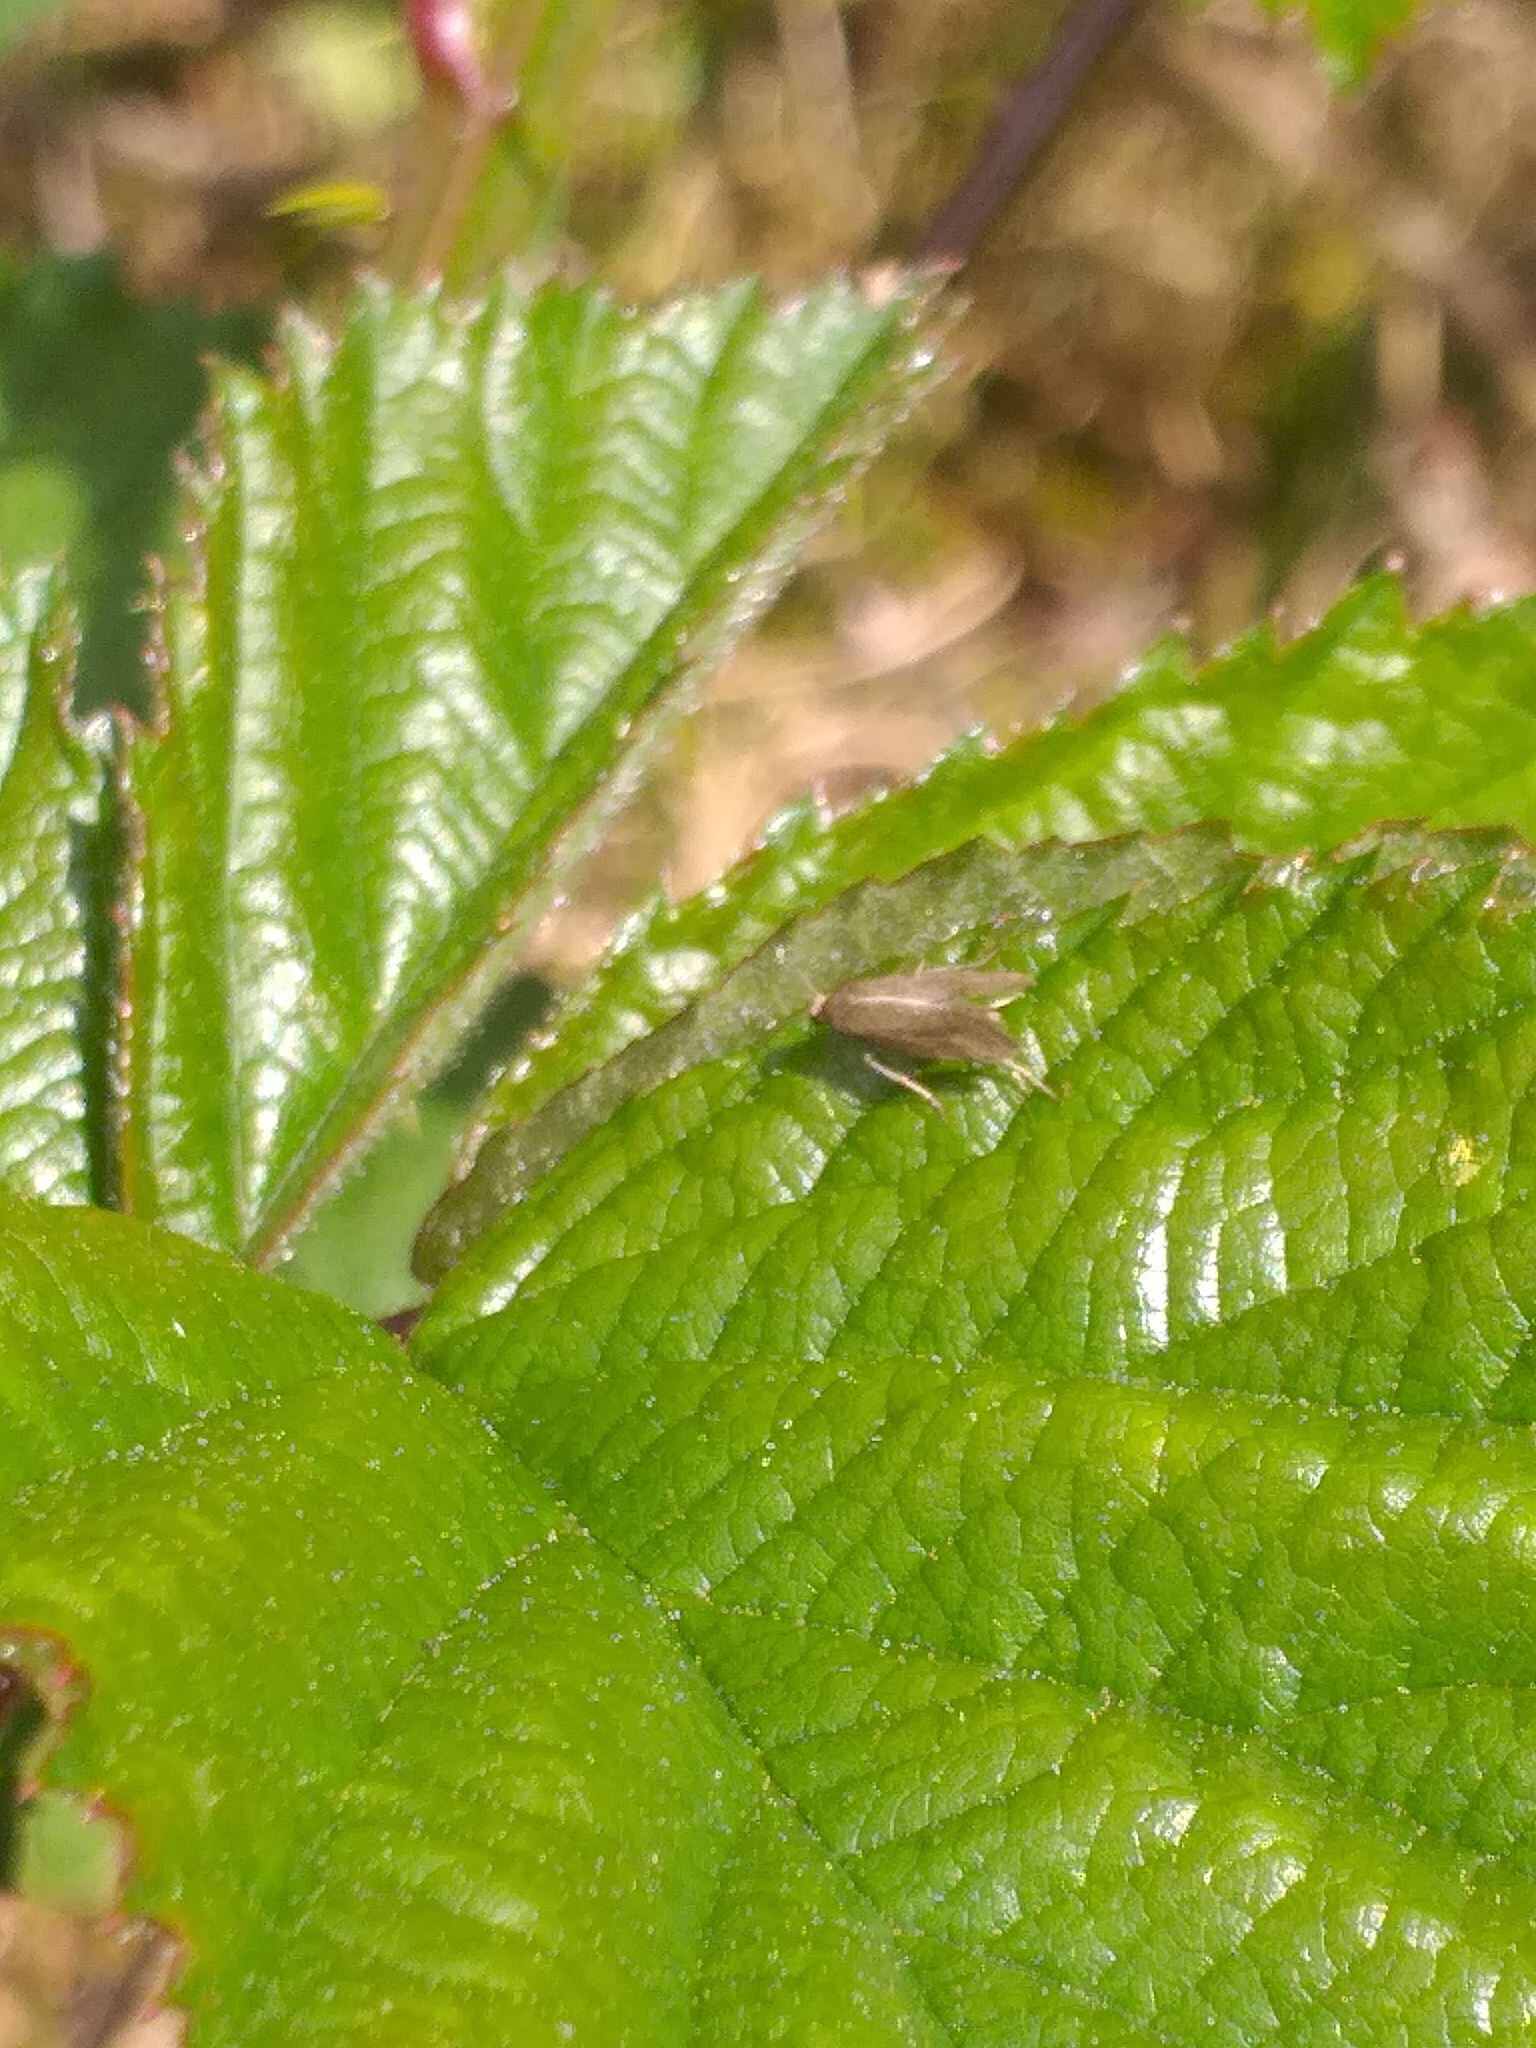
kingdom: Animalia
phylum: Arthropoda
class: Insecta
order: Lepidoptera
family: Glyphipterigidae
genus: Glyphipterix
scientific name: Glyphipterix fuscoviridella
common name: Plain fanner
